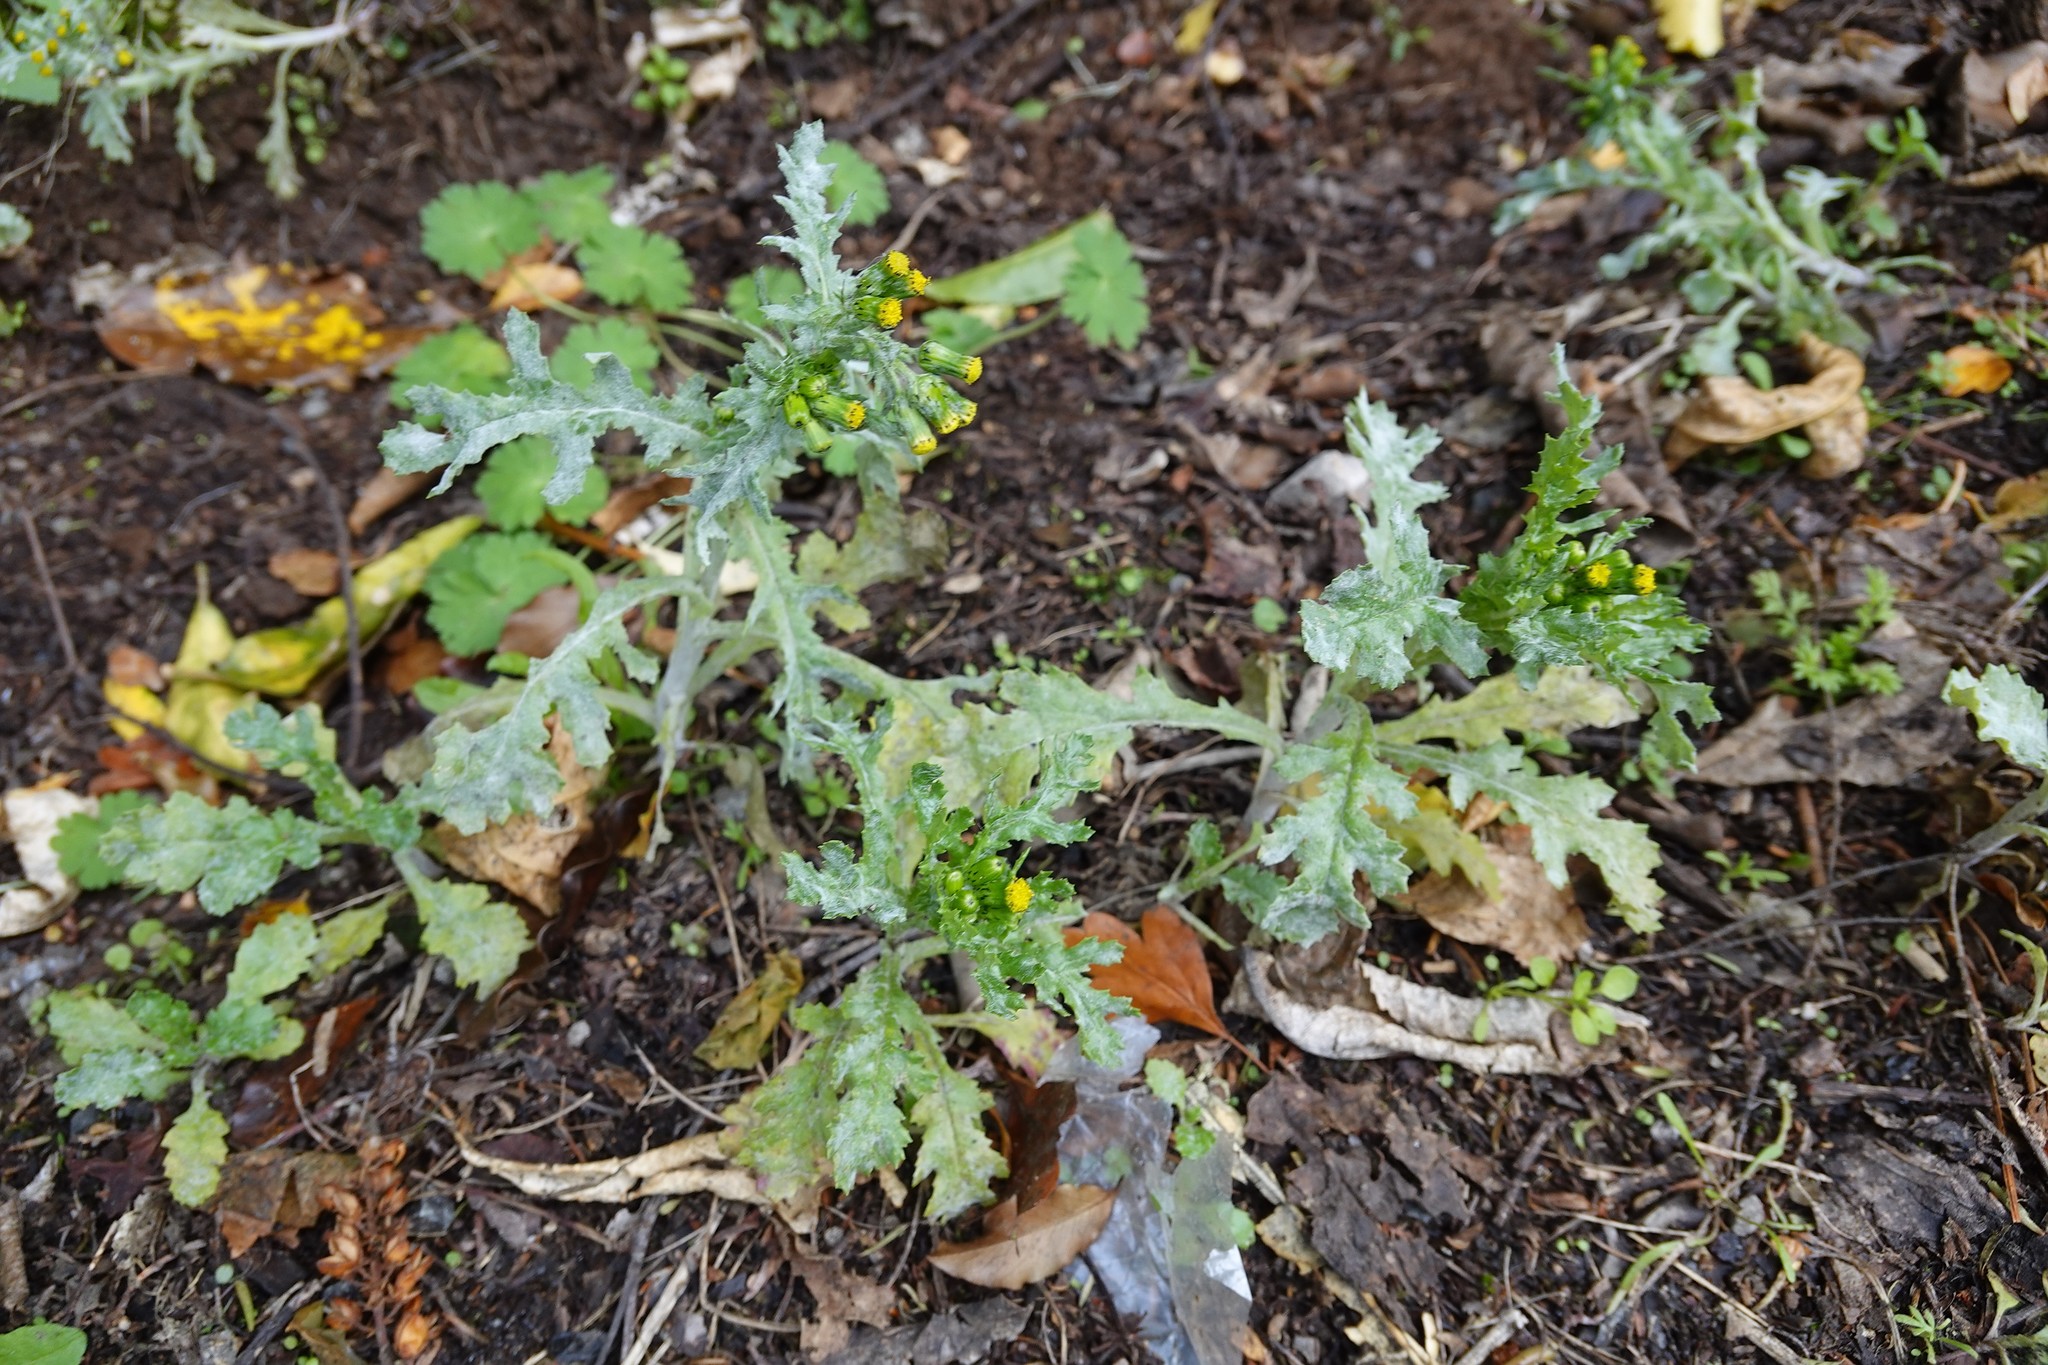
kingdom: Plantae
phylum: Tracheophyta
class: Magnoliopsida
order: Asterales
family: Asteraceae
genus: Senecio
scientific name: Senecio vulgaris
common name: Old-man-in-the-spring
